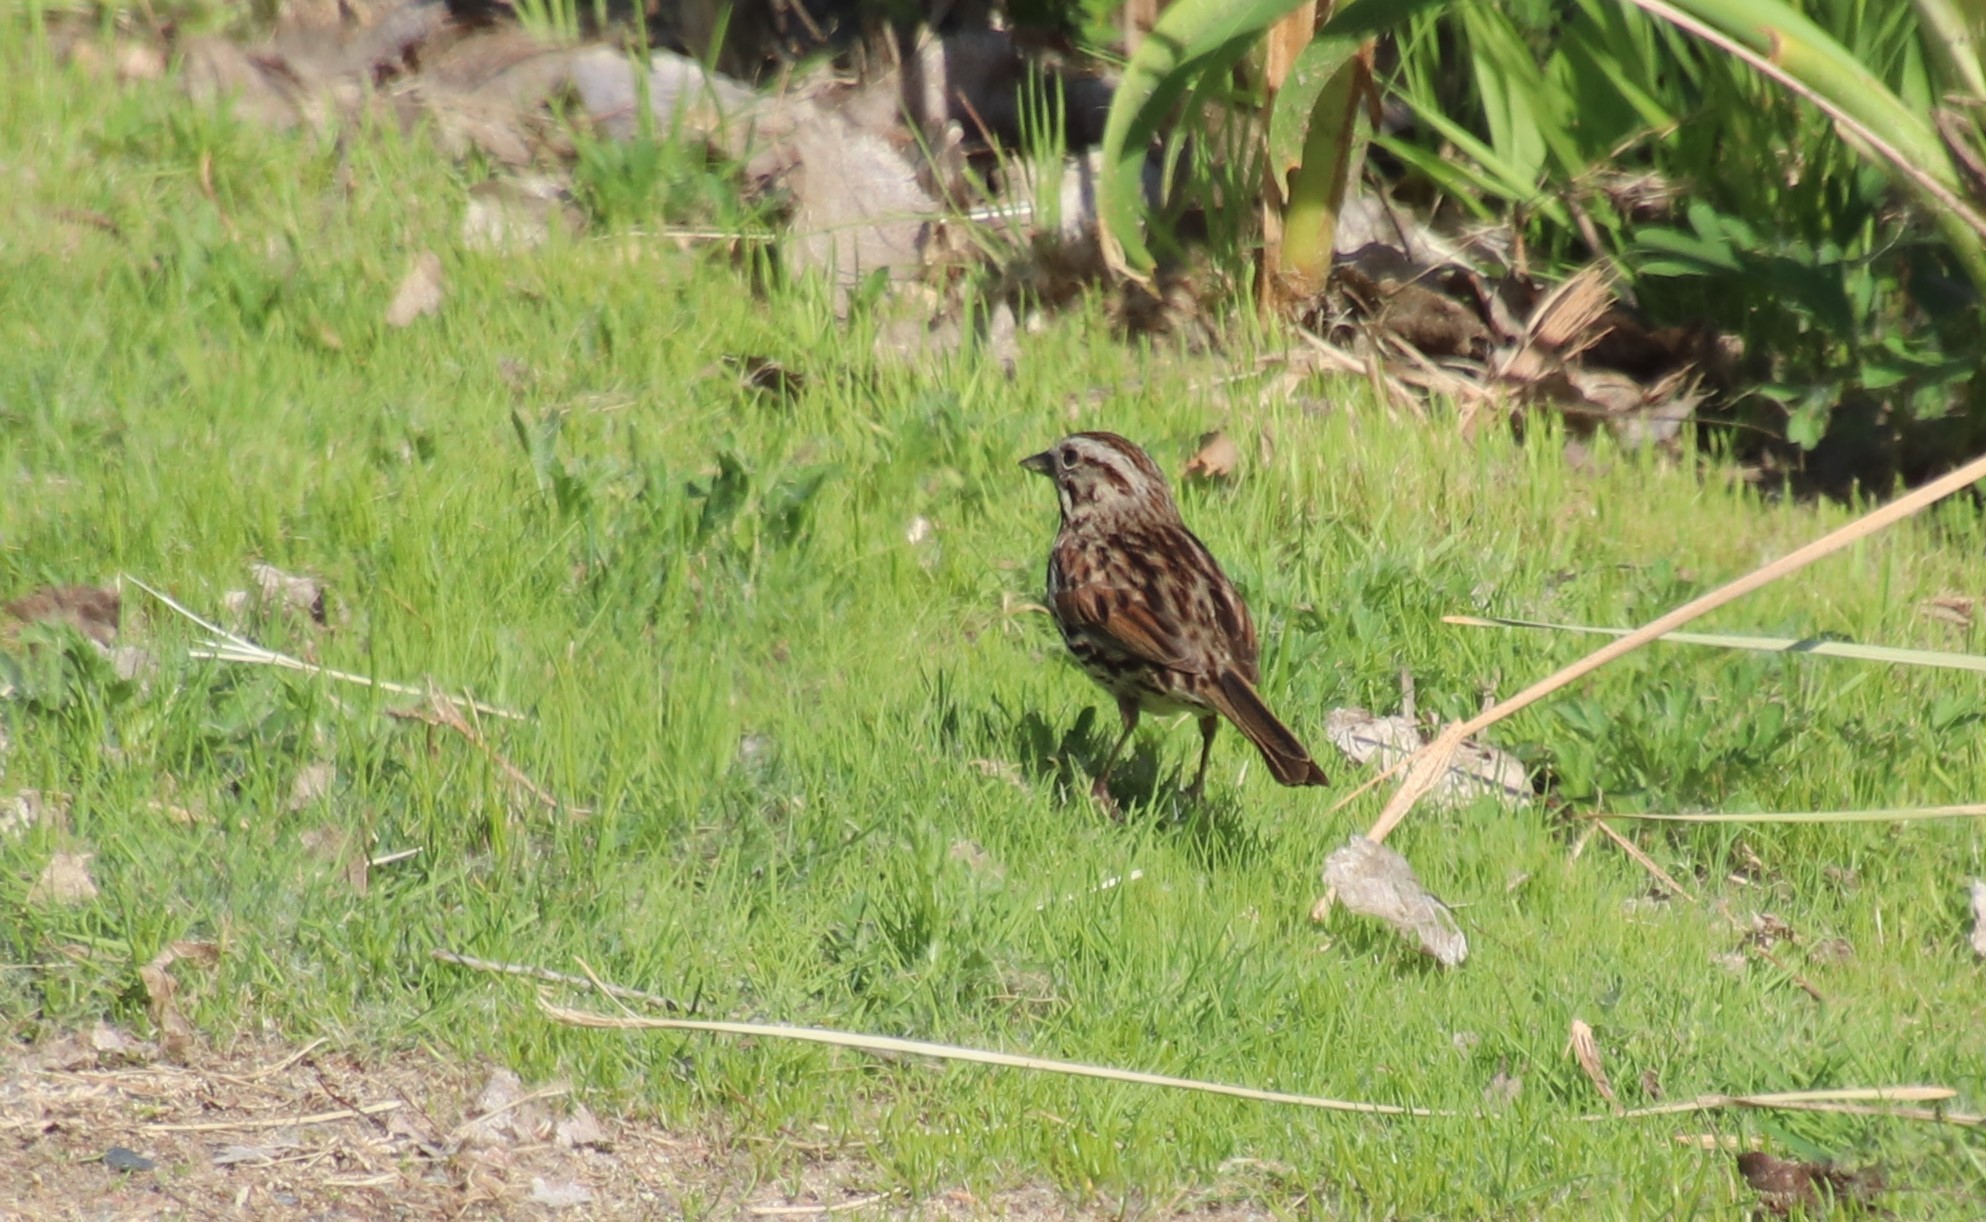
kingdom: Animalia
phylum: Chordata
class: Aves
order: Passeriformes
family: Passerellidae
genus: Melospiza
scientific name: Melospiza melodia
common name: Song sparrow
